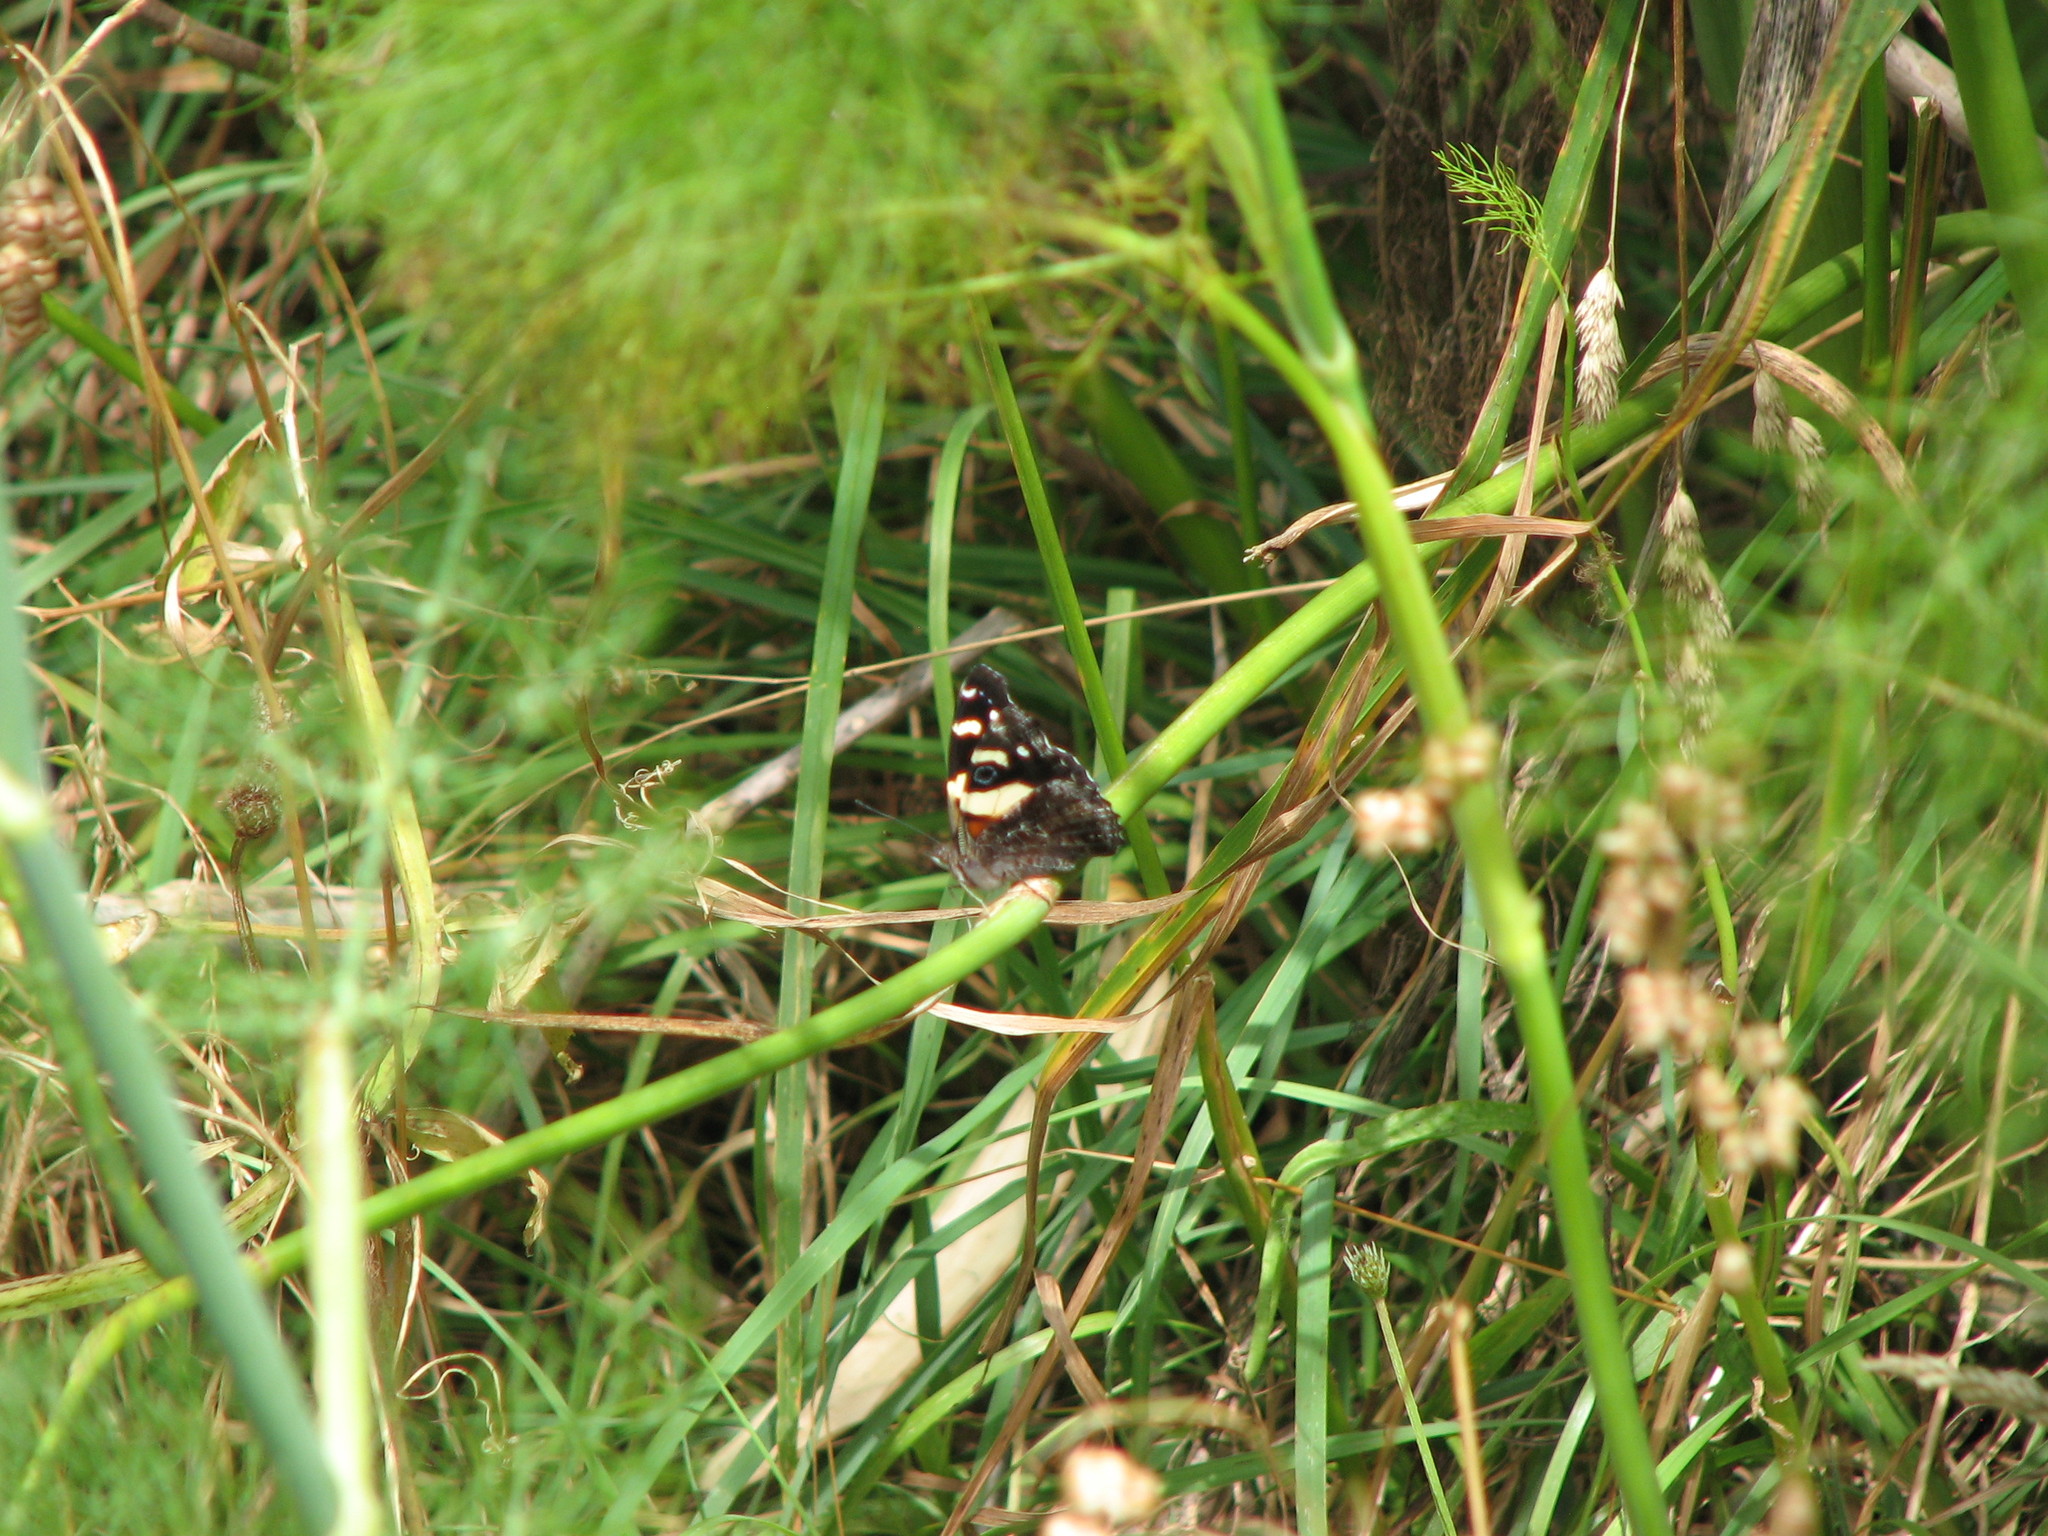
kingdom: Animalia
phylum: Arthropoda
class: Insecta
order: Lepidoptera
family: Nymphalidae
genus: Vanessa
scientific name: Vanessa itea
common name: Yellow admiral
